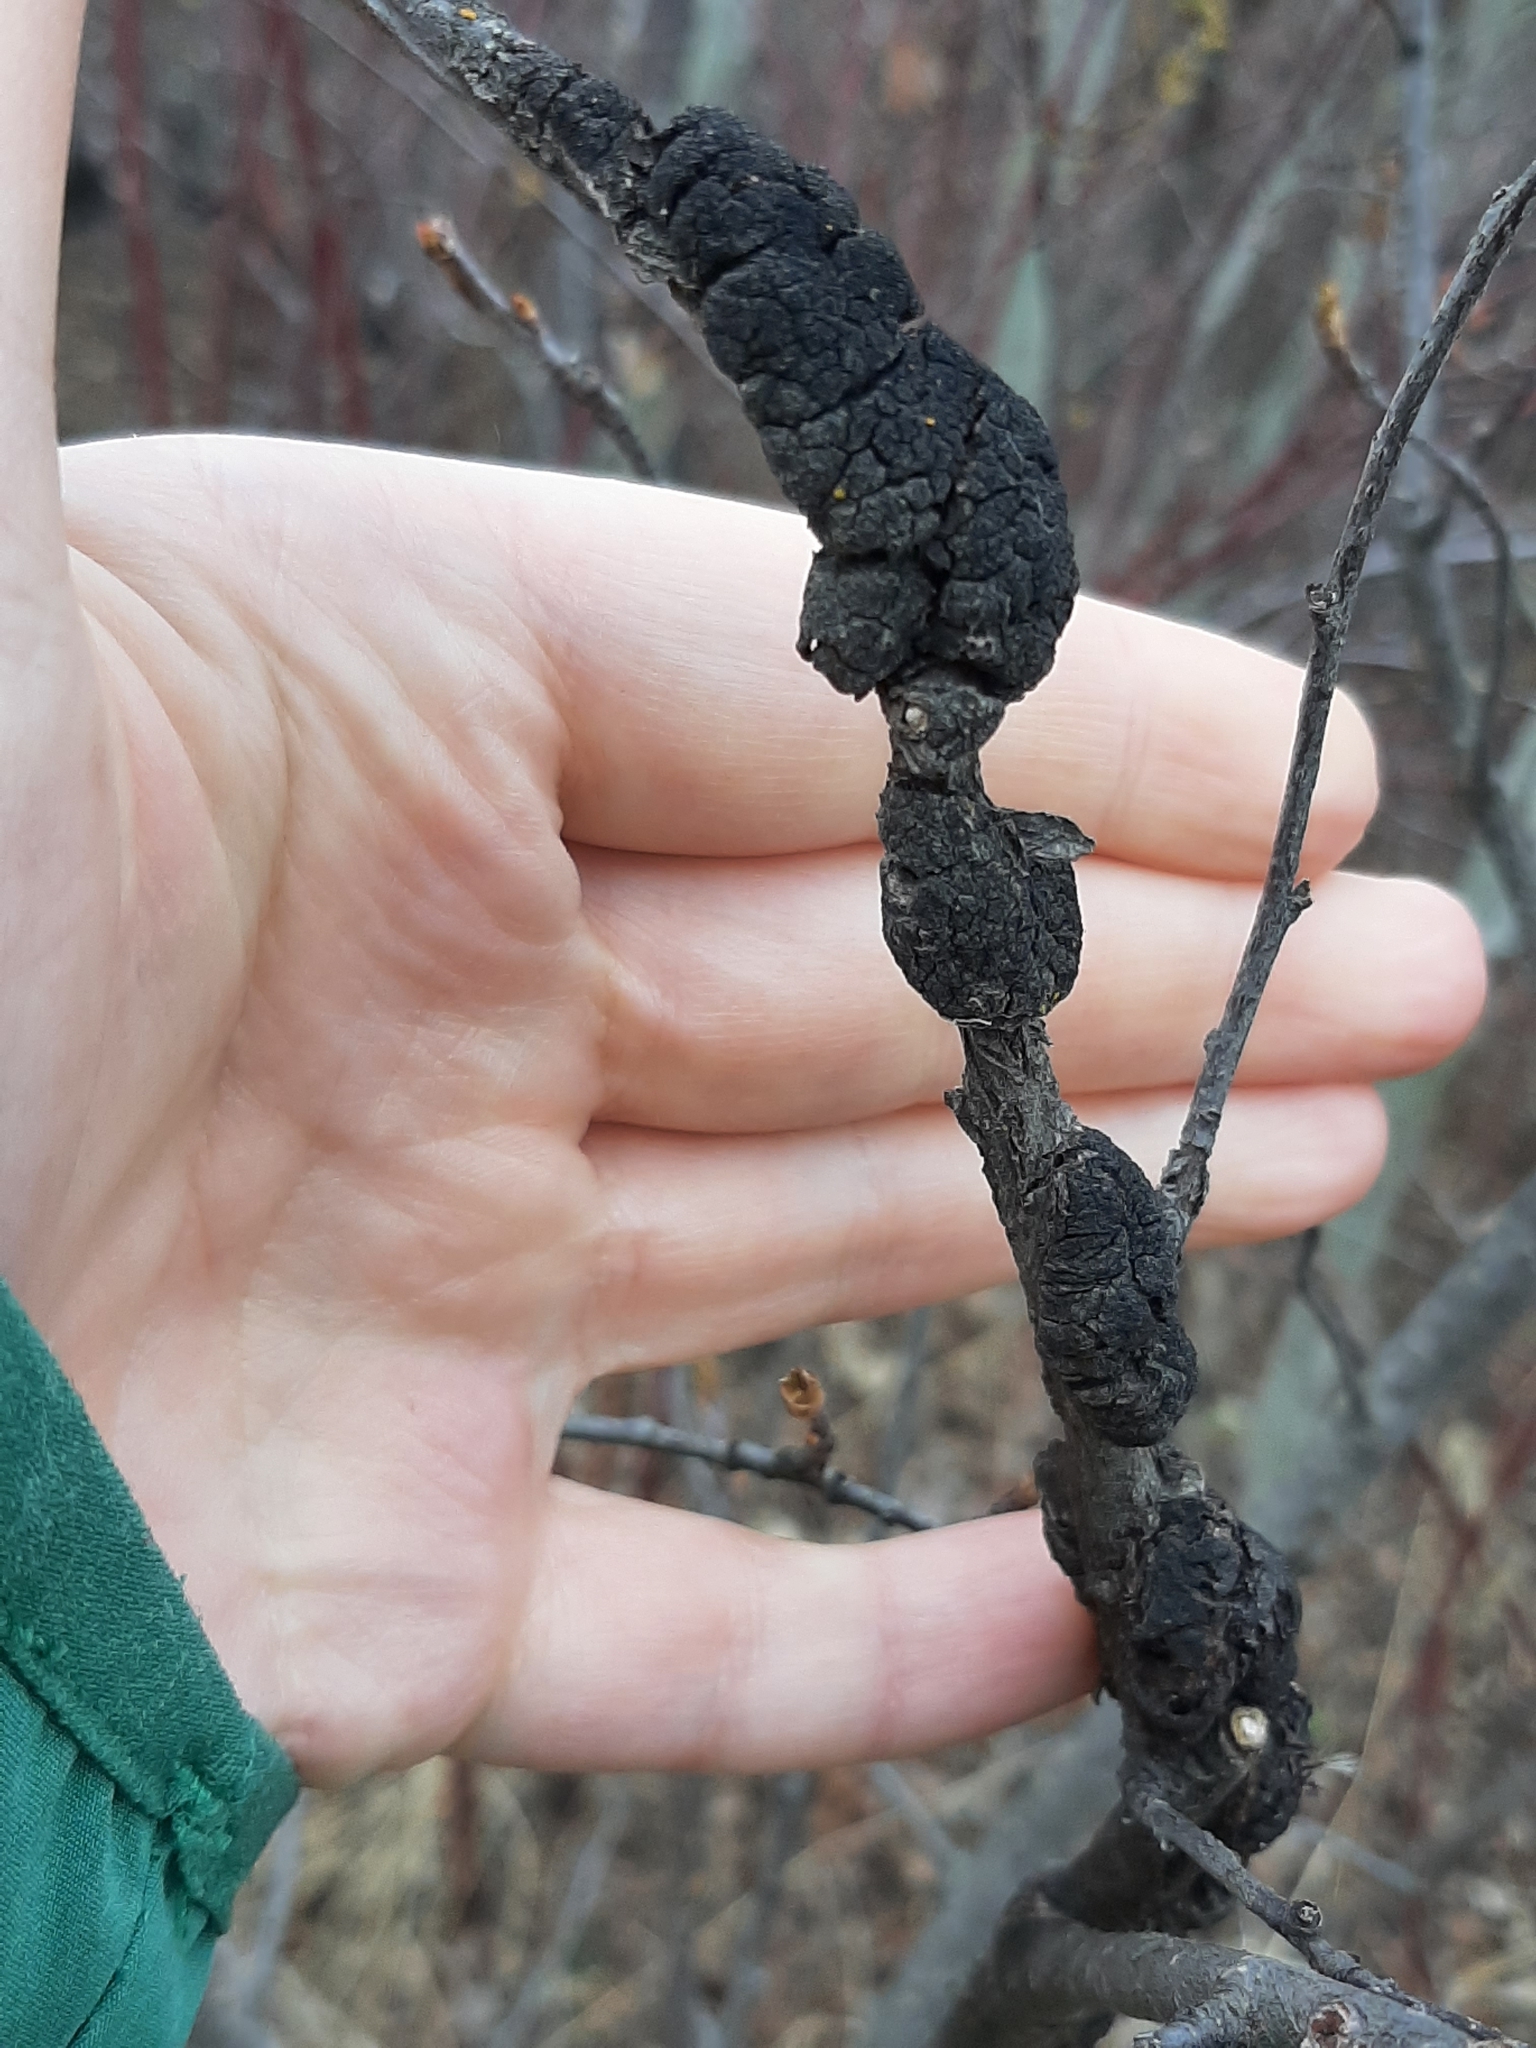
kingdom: Fungi
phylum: Ascomycota
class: Dothideomycetes
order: Venturiales
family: Venturiaceae
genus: Apiosporina
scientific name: Apiosporina morbosa
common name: Black knot
